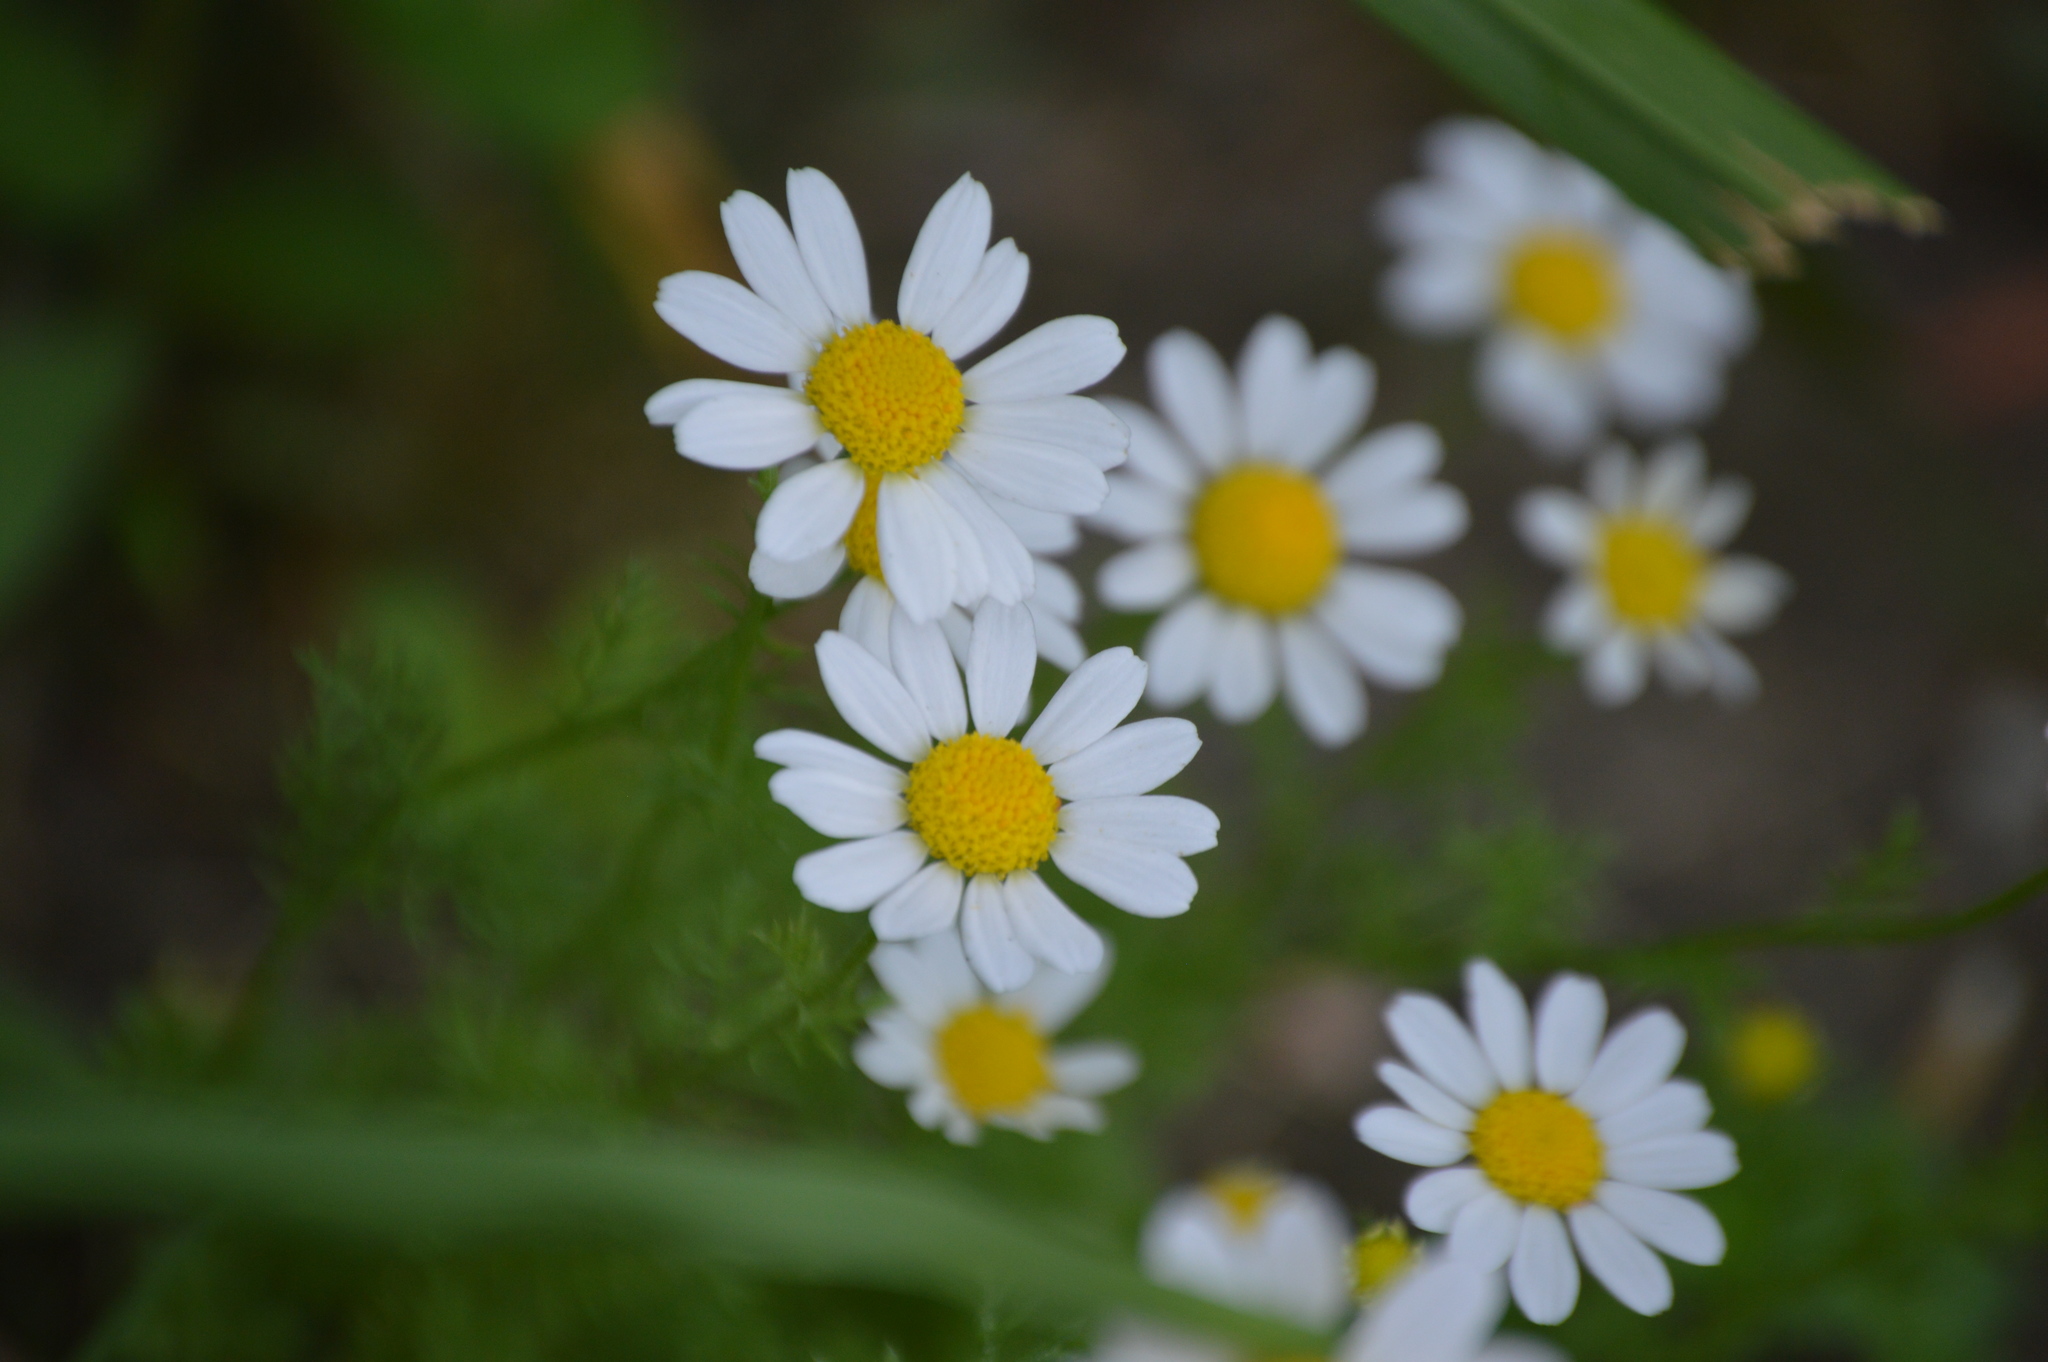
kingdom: Plantae
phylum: Tracheophyta
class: Magnoliopsida
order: Asterales
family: Asteraceae
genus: Anthemis
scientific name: Anthemis cotula
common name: Stinking chamomile
